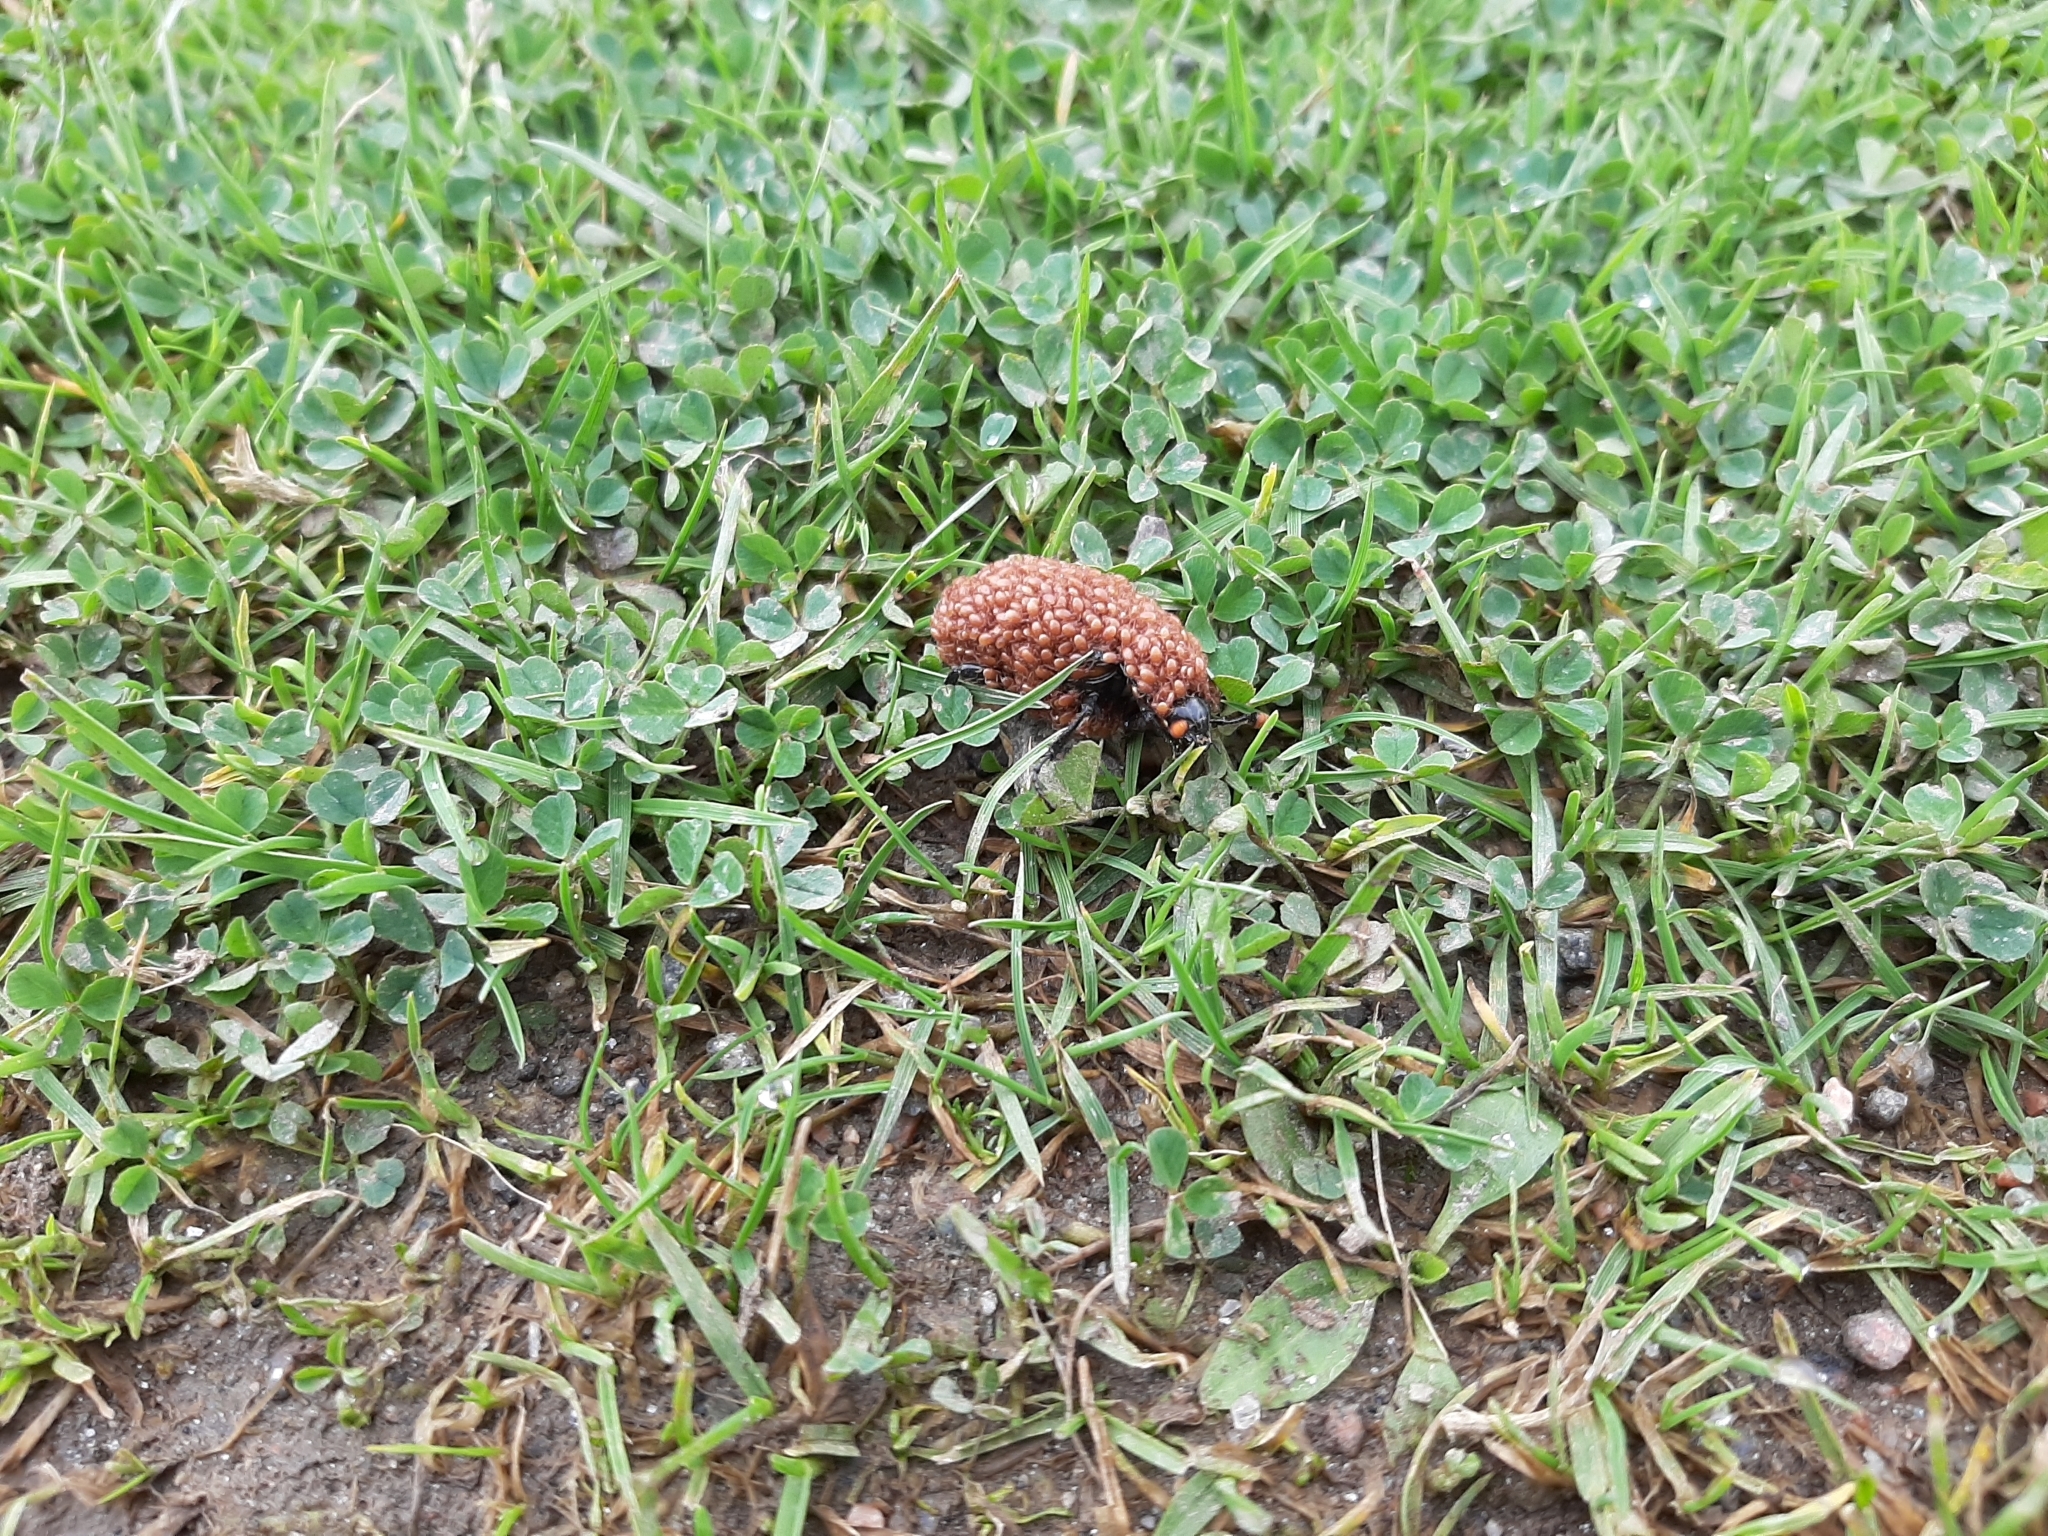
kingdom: Animalia
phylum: Arthropoda
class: Insecta
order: Coleoptera
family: Staphylinidae
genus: Nicrophorus
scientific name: Nicrophorus
